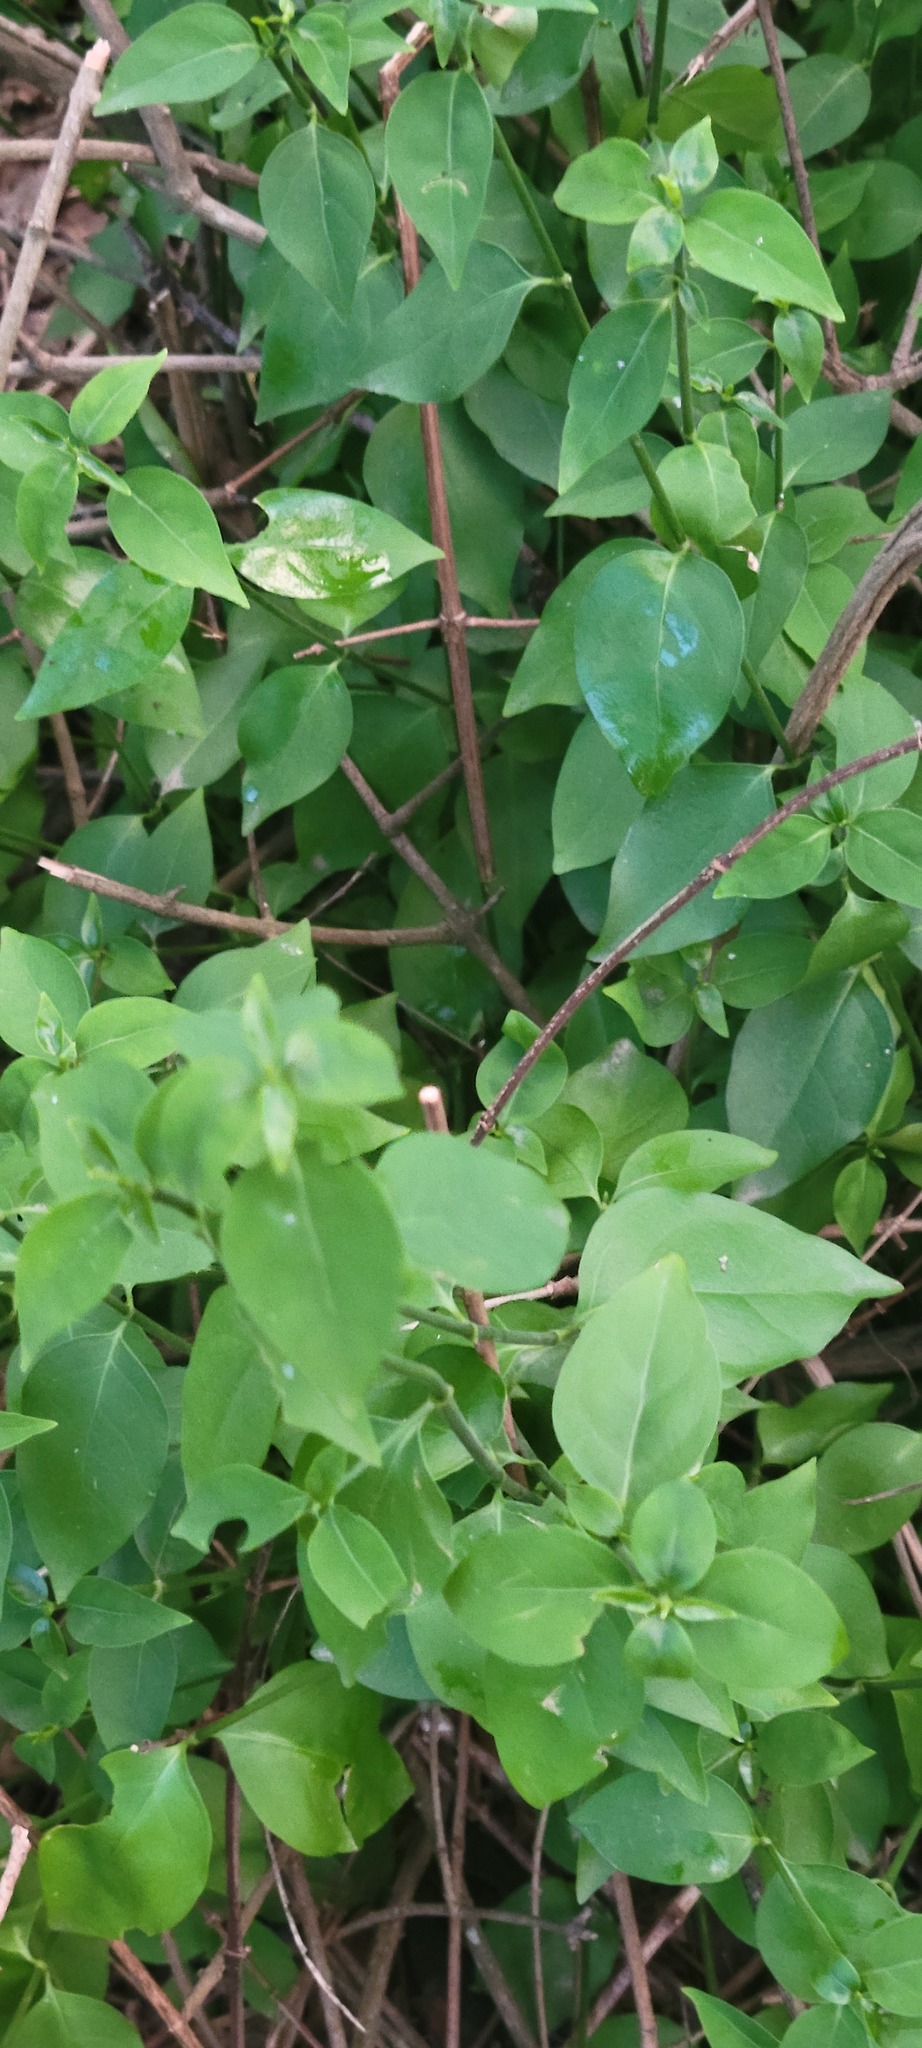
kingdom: Plantae
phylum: Tracheophyta
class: Magnoliopsida
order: Gentianales
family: Rubiaceae
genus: Chiococca
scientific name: Chiococca alba
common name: Snowberry
